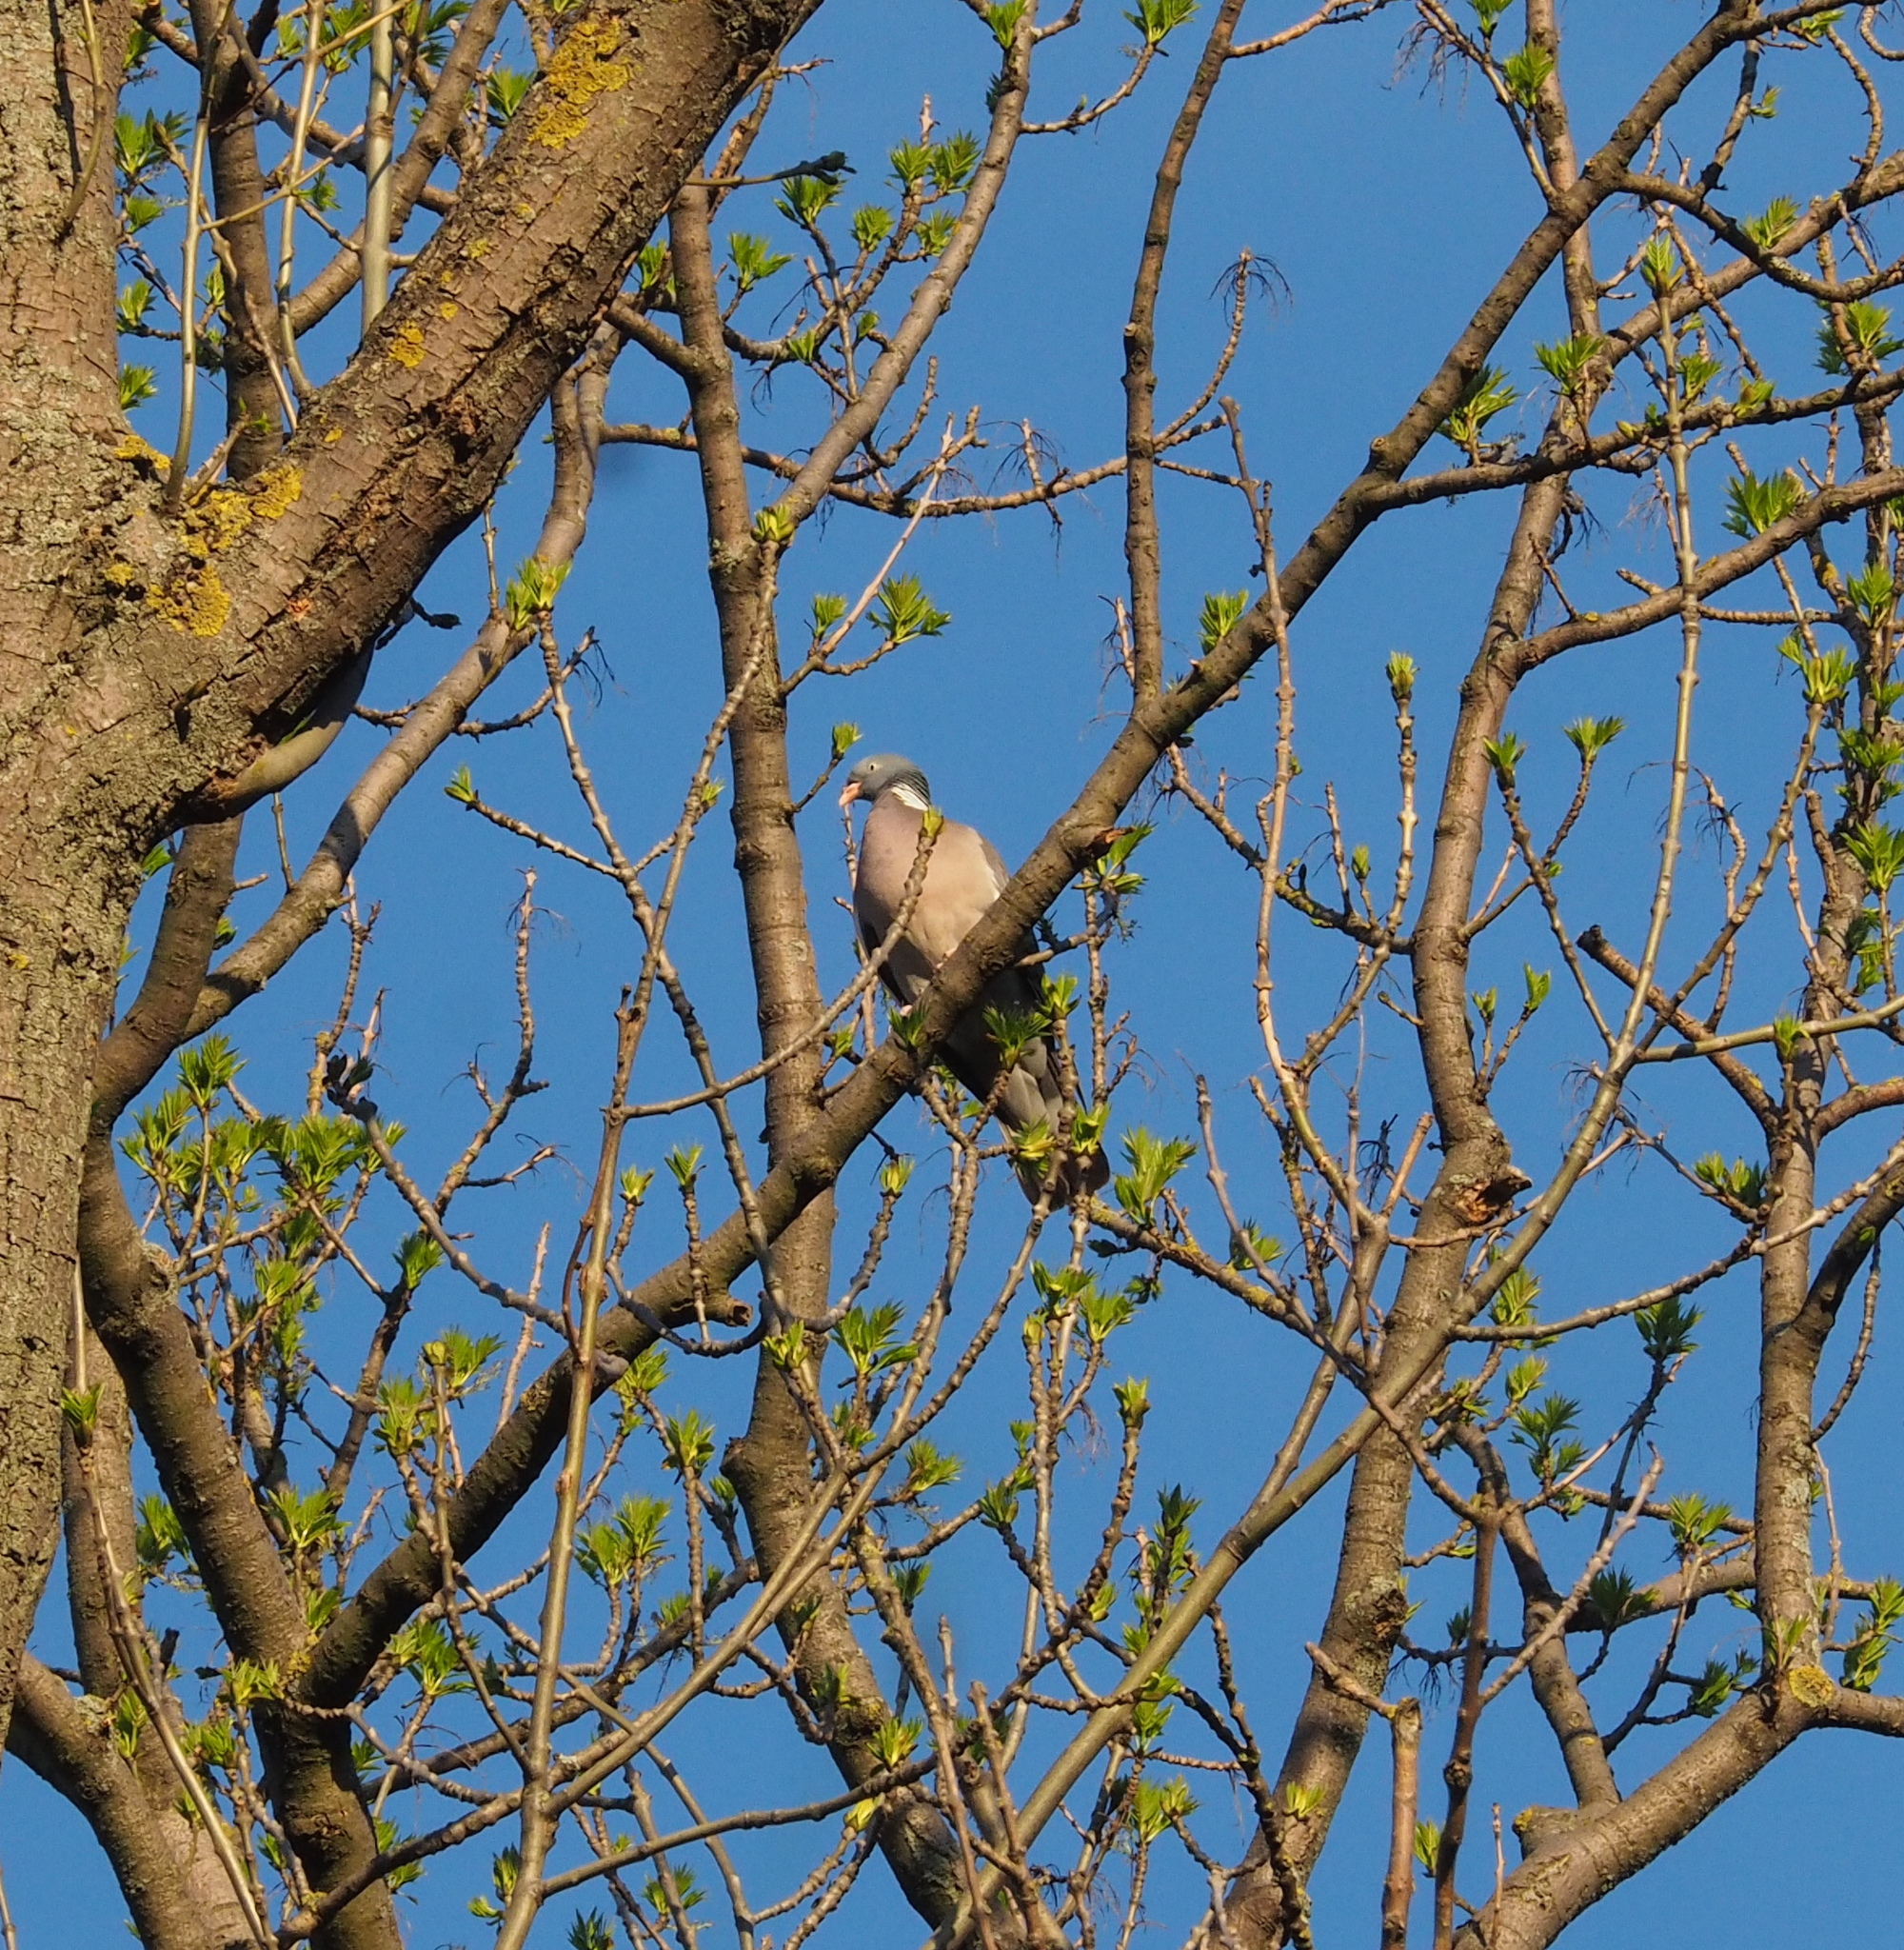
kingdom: Animalia
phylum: Chordata
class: Aves
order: Columbiformes
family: Columbidae
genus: Columba
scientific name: Columba palumbus
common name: Common wood pigeon
